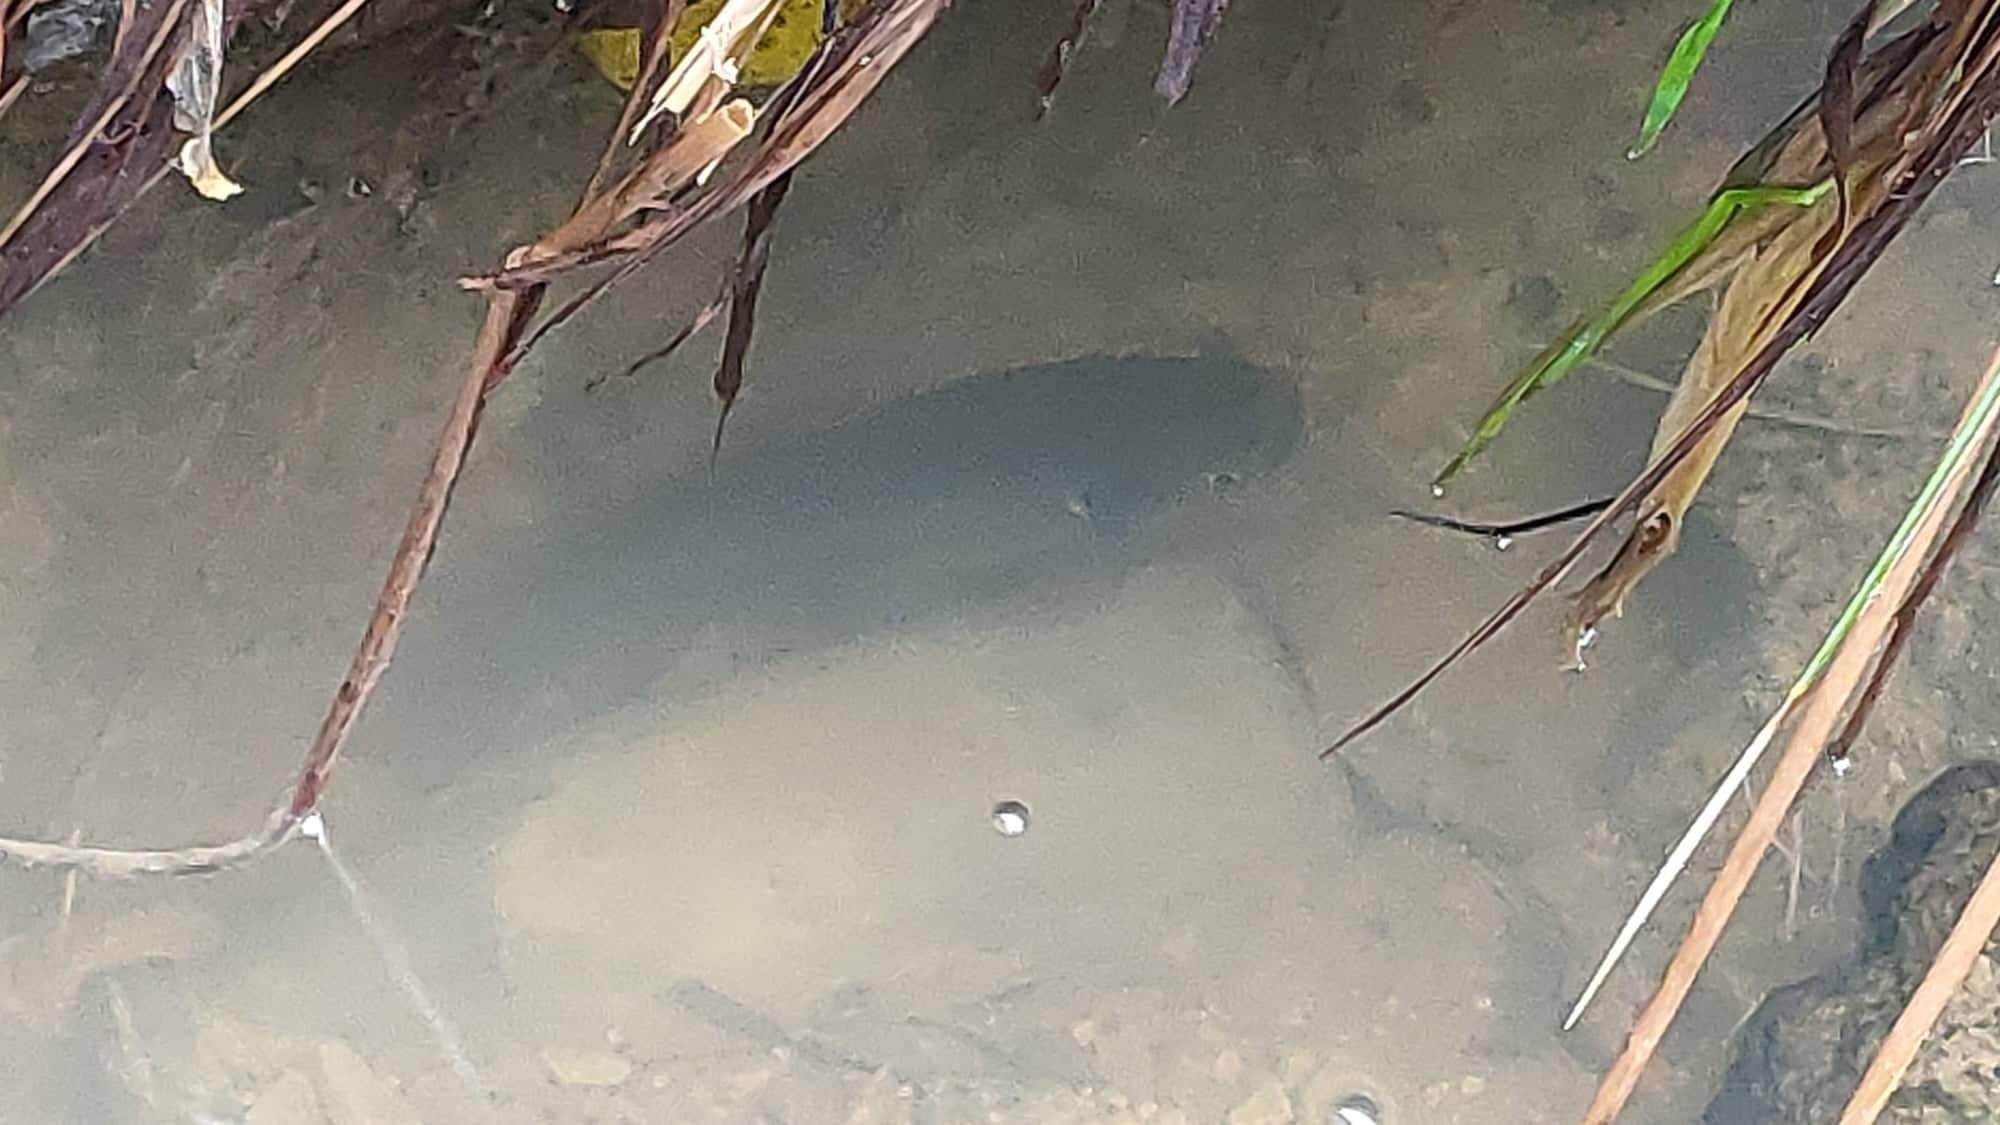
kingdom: Animalia
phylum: Chordata
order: Osmeriformes
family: Galaxiidae
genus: Galaxias
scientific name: Galaxias fasciatus
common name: Banded kokopu
